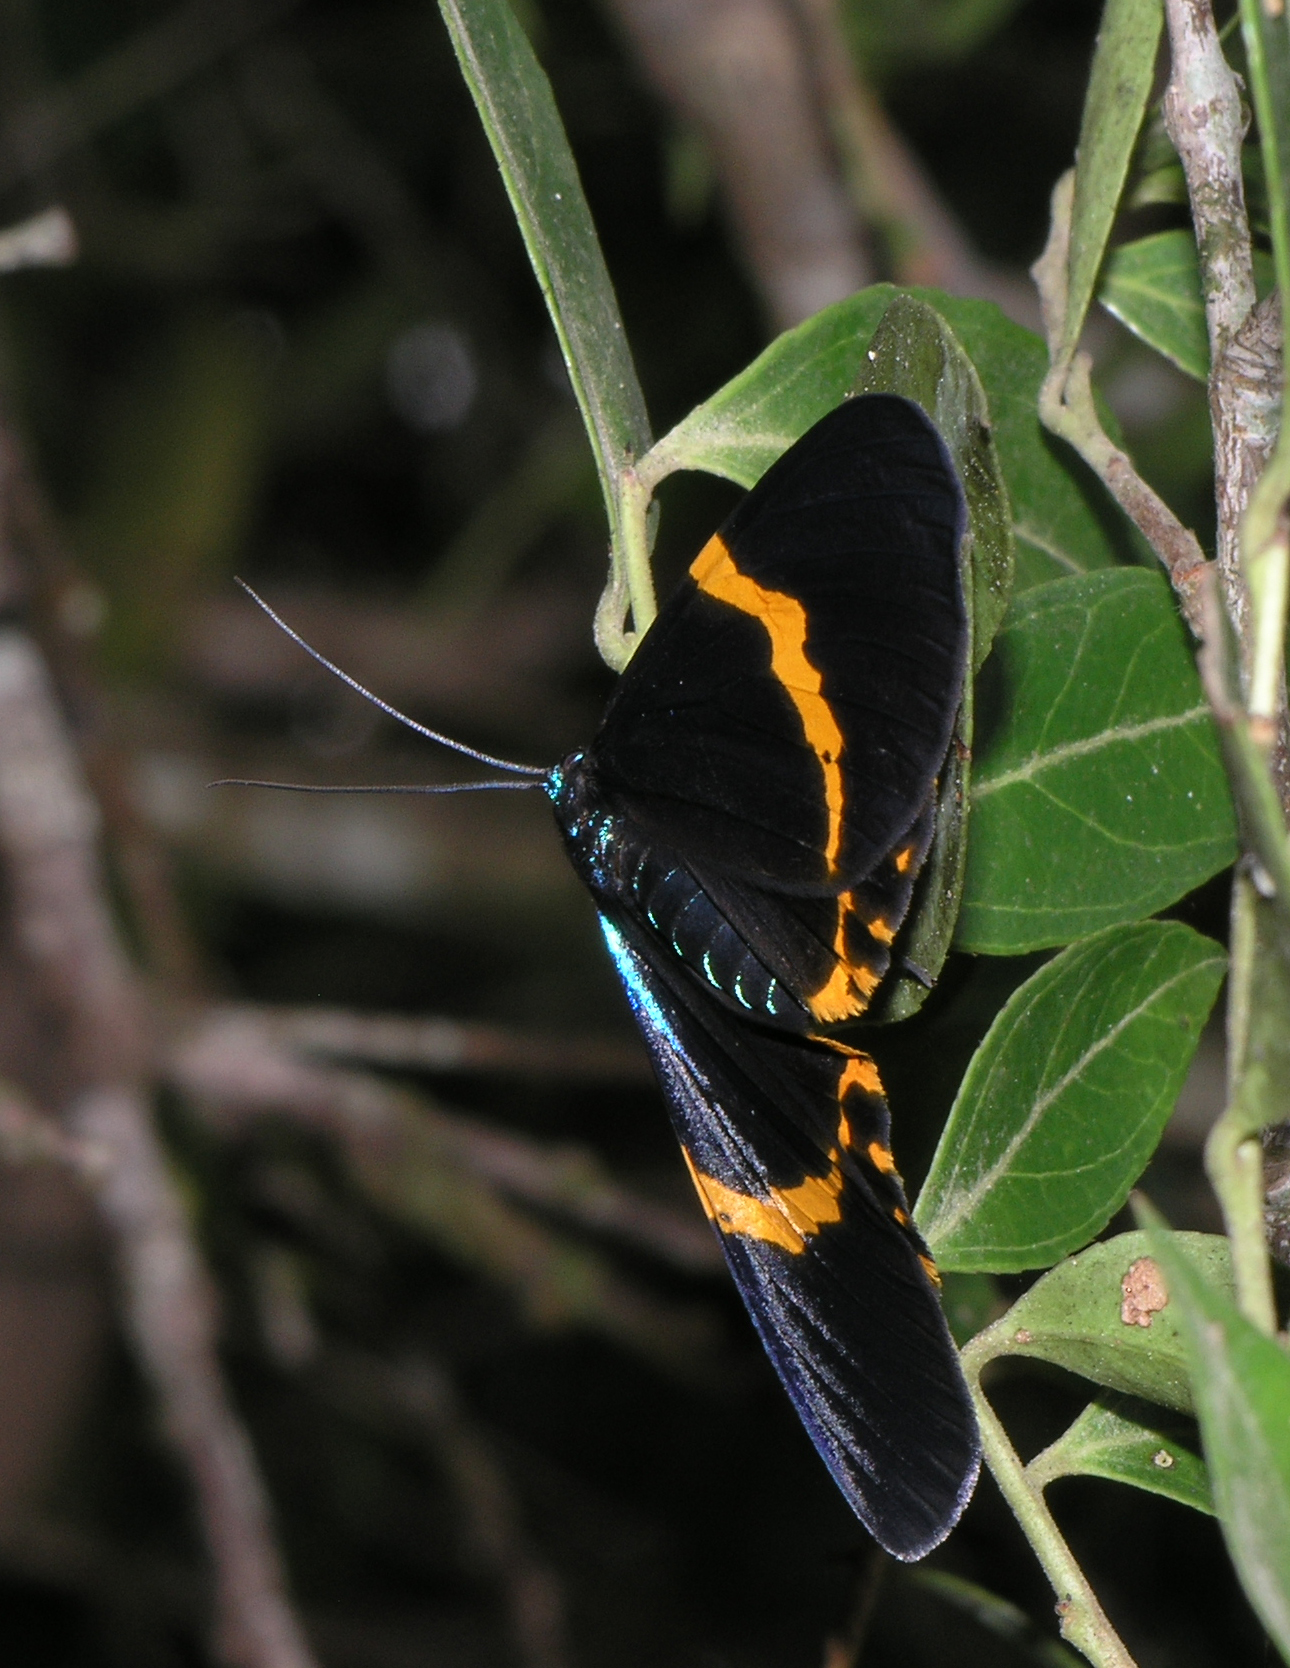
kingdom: Animalia
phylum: Arthropoda
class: Insecta
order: Lepidoptera
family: Geometridae
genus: Milionia
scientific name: Milionia basalis
